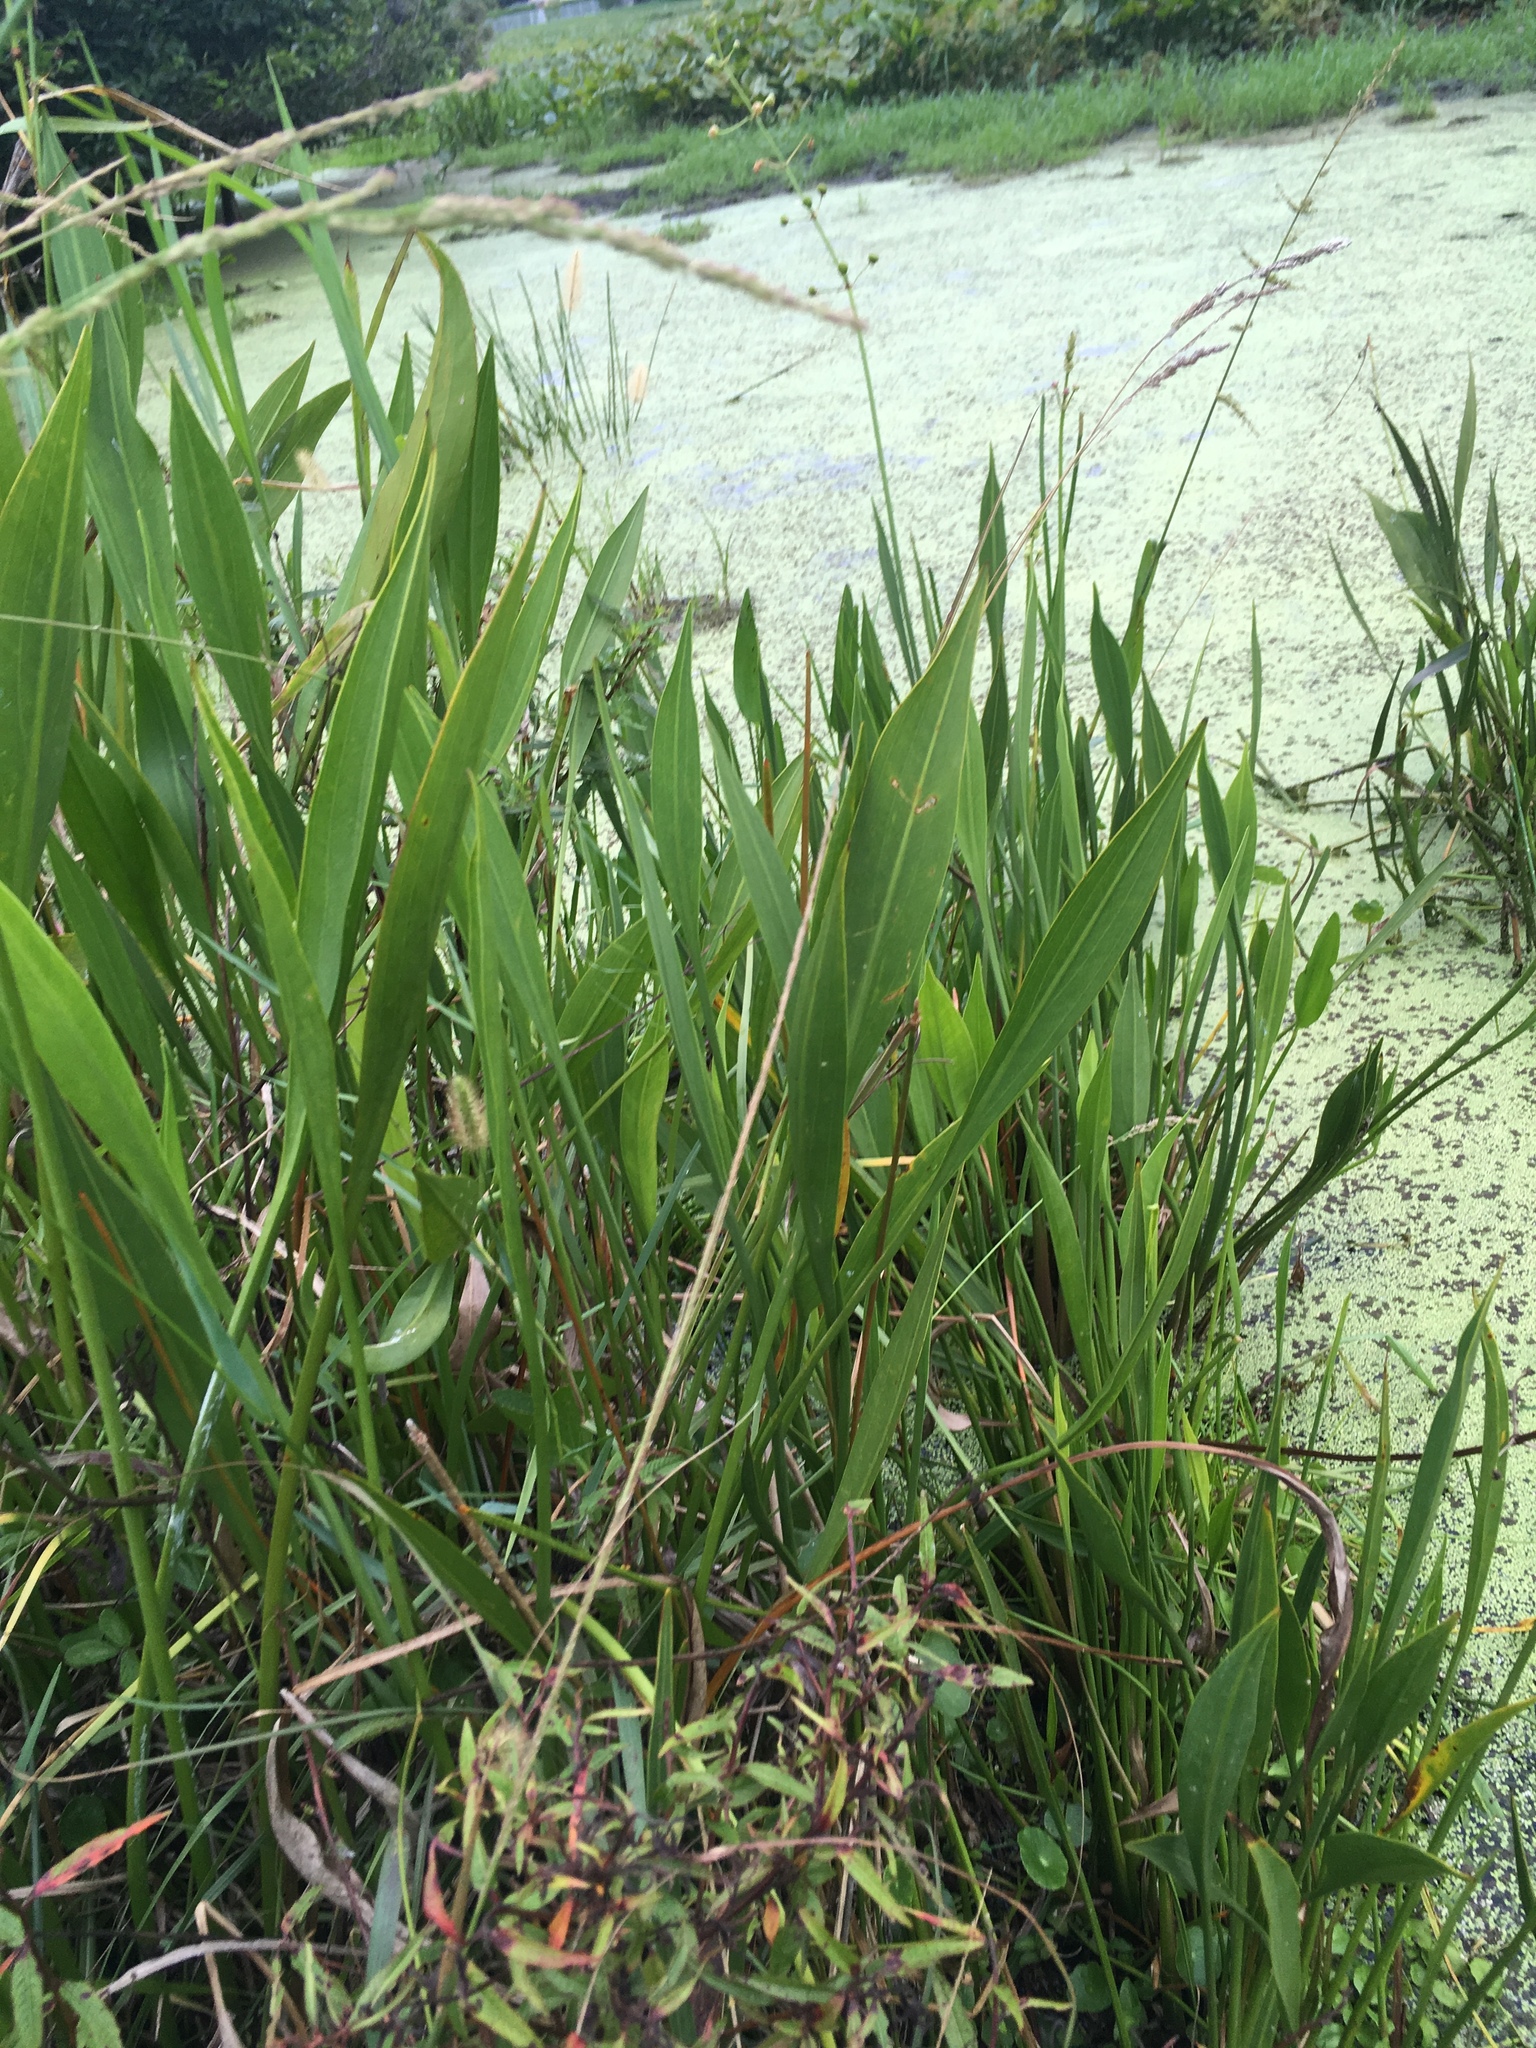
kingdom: Plantae
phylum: Tracheophyta
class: Liliopsida
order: Alismatales
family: Alismataceae
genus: Sagittaria
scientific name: Sagittaria lancifolia
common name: Lance-leaf arrowhead
